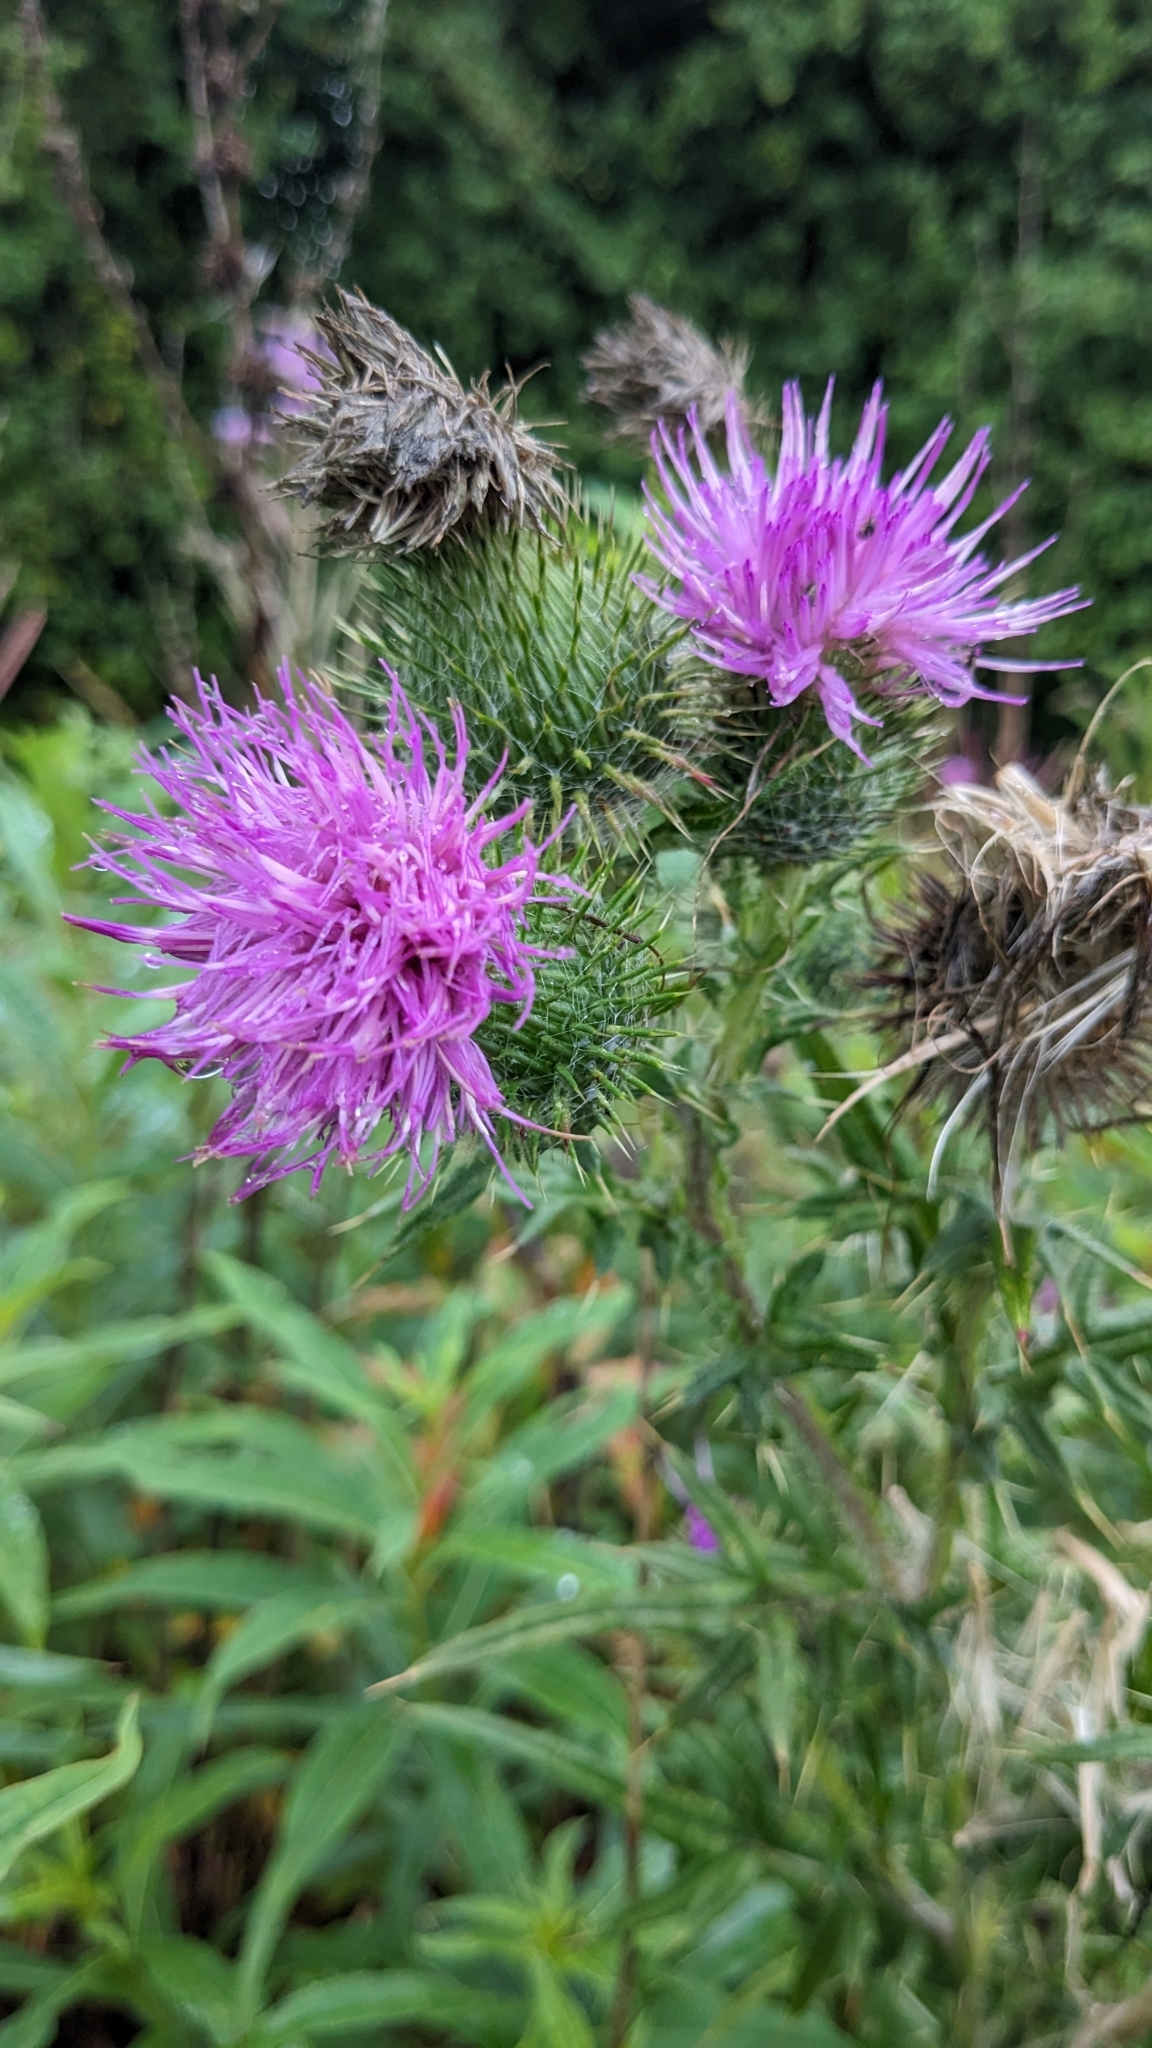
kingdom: Plantae
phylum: Tracheophyta
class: Magnoliopsida
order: Asterales
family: Asteraceae
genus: Cirsium
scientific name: Cirsium vulgare
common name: Bull thistle
